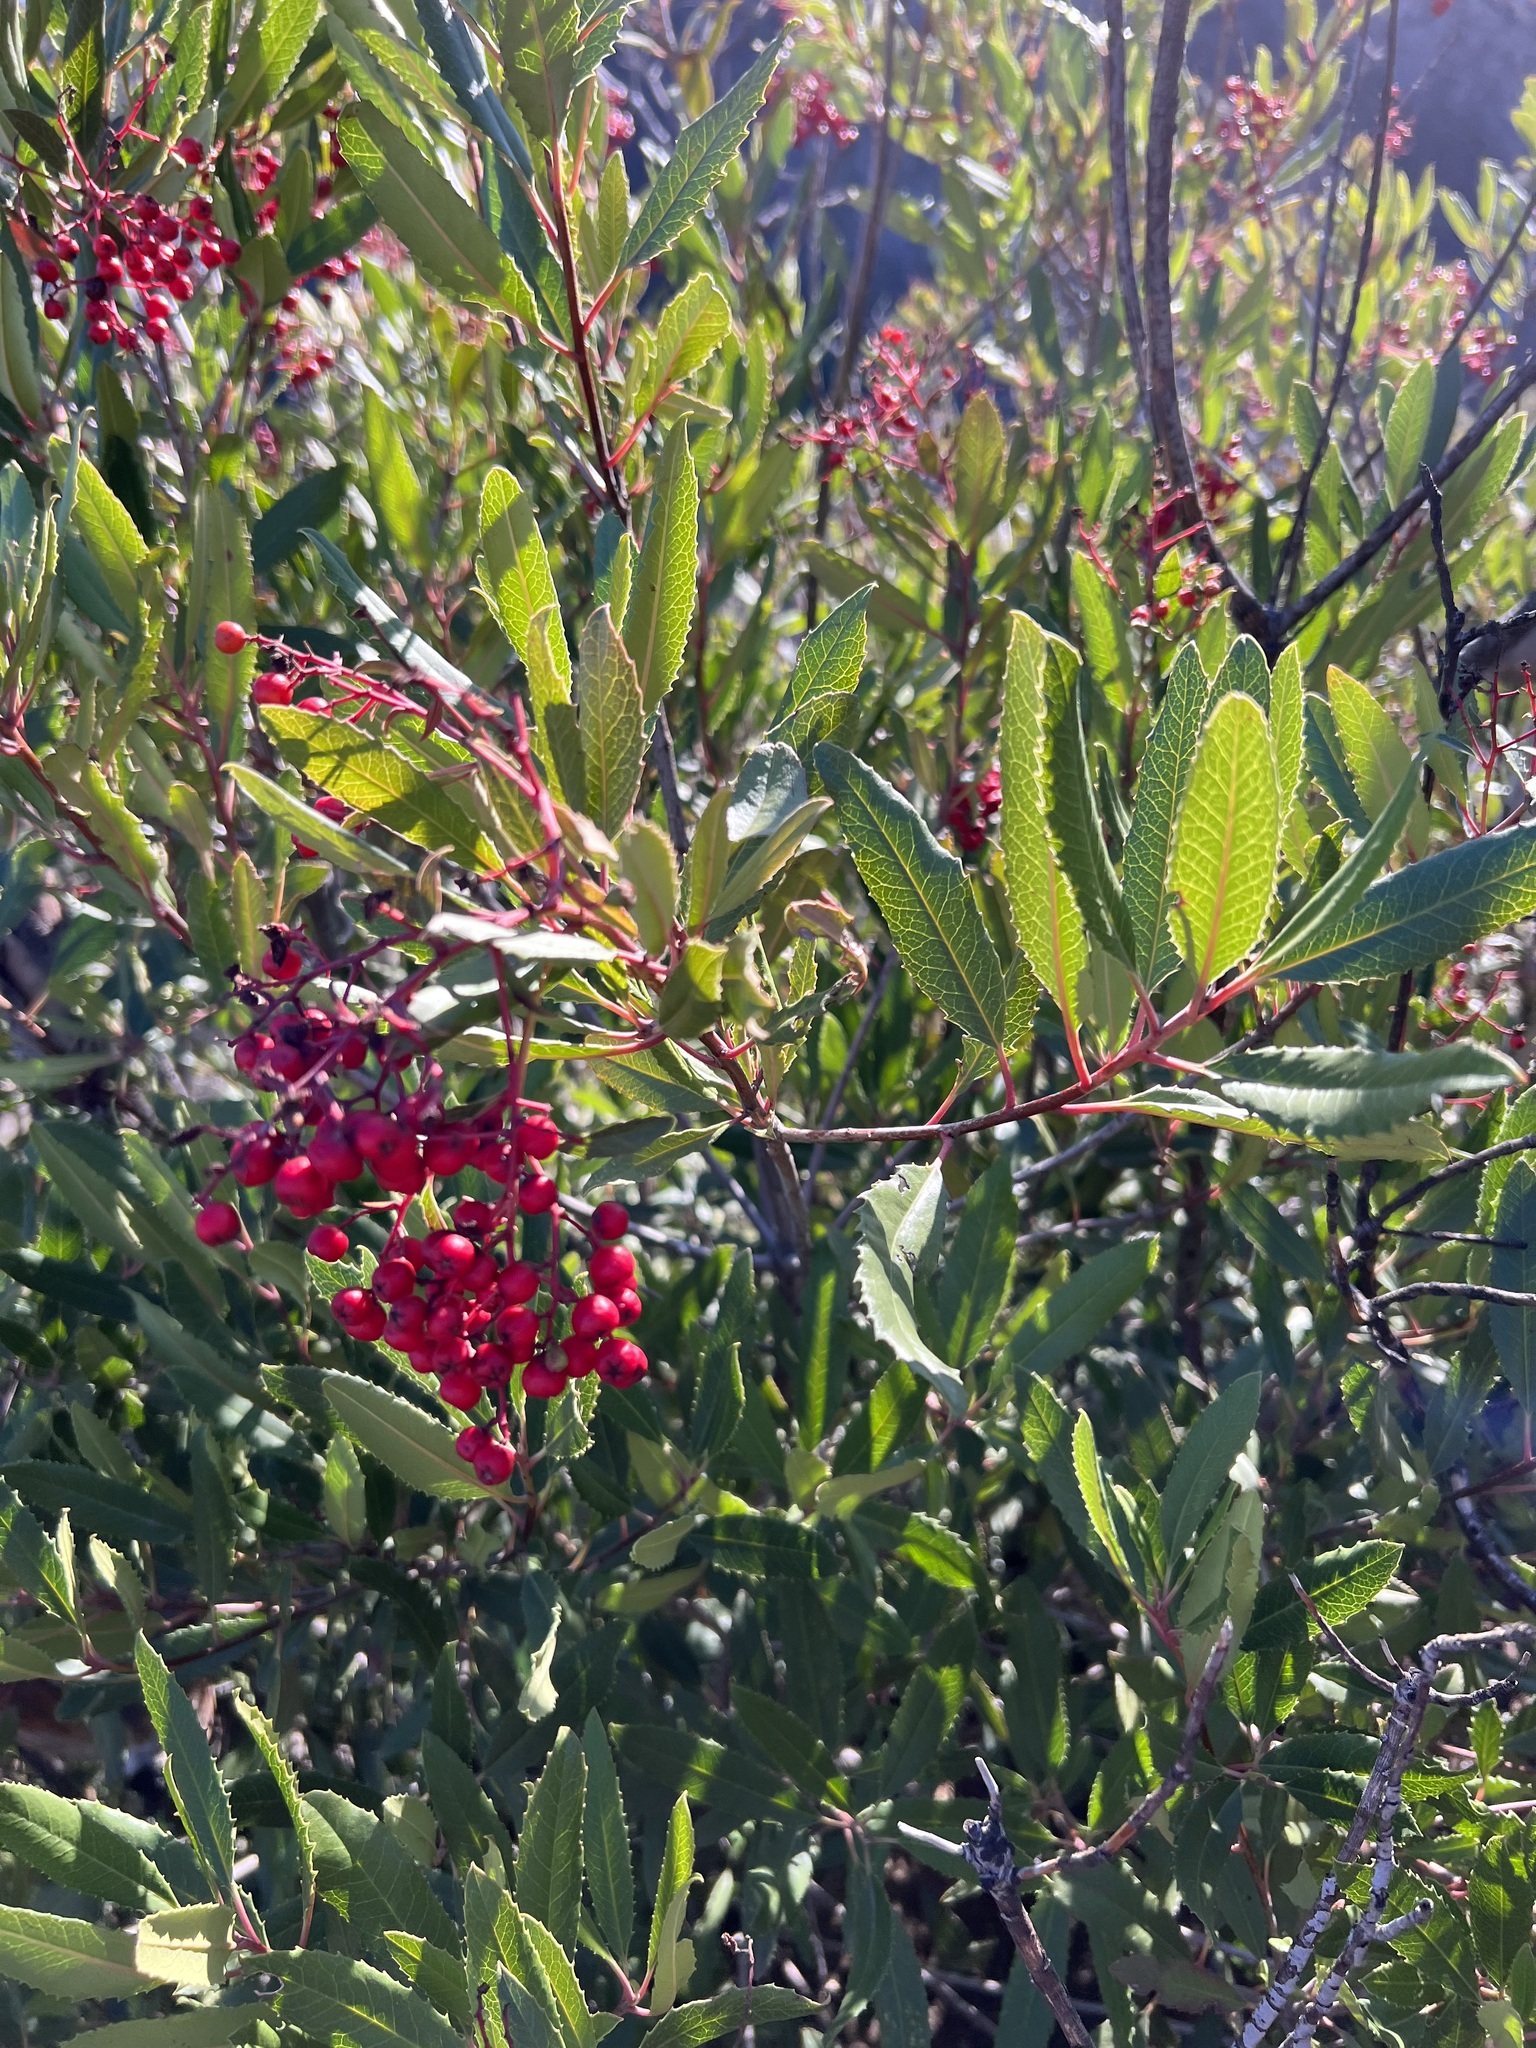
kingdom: Plantae
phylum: Tracheophyta
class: Magnoliopsida
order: Rosales
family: Rosaceae
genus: Heteromeles
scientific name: Heteromeles arbutifolia
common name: California-holly
